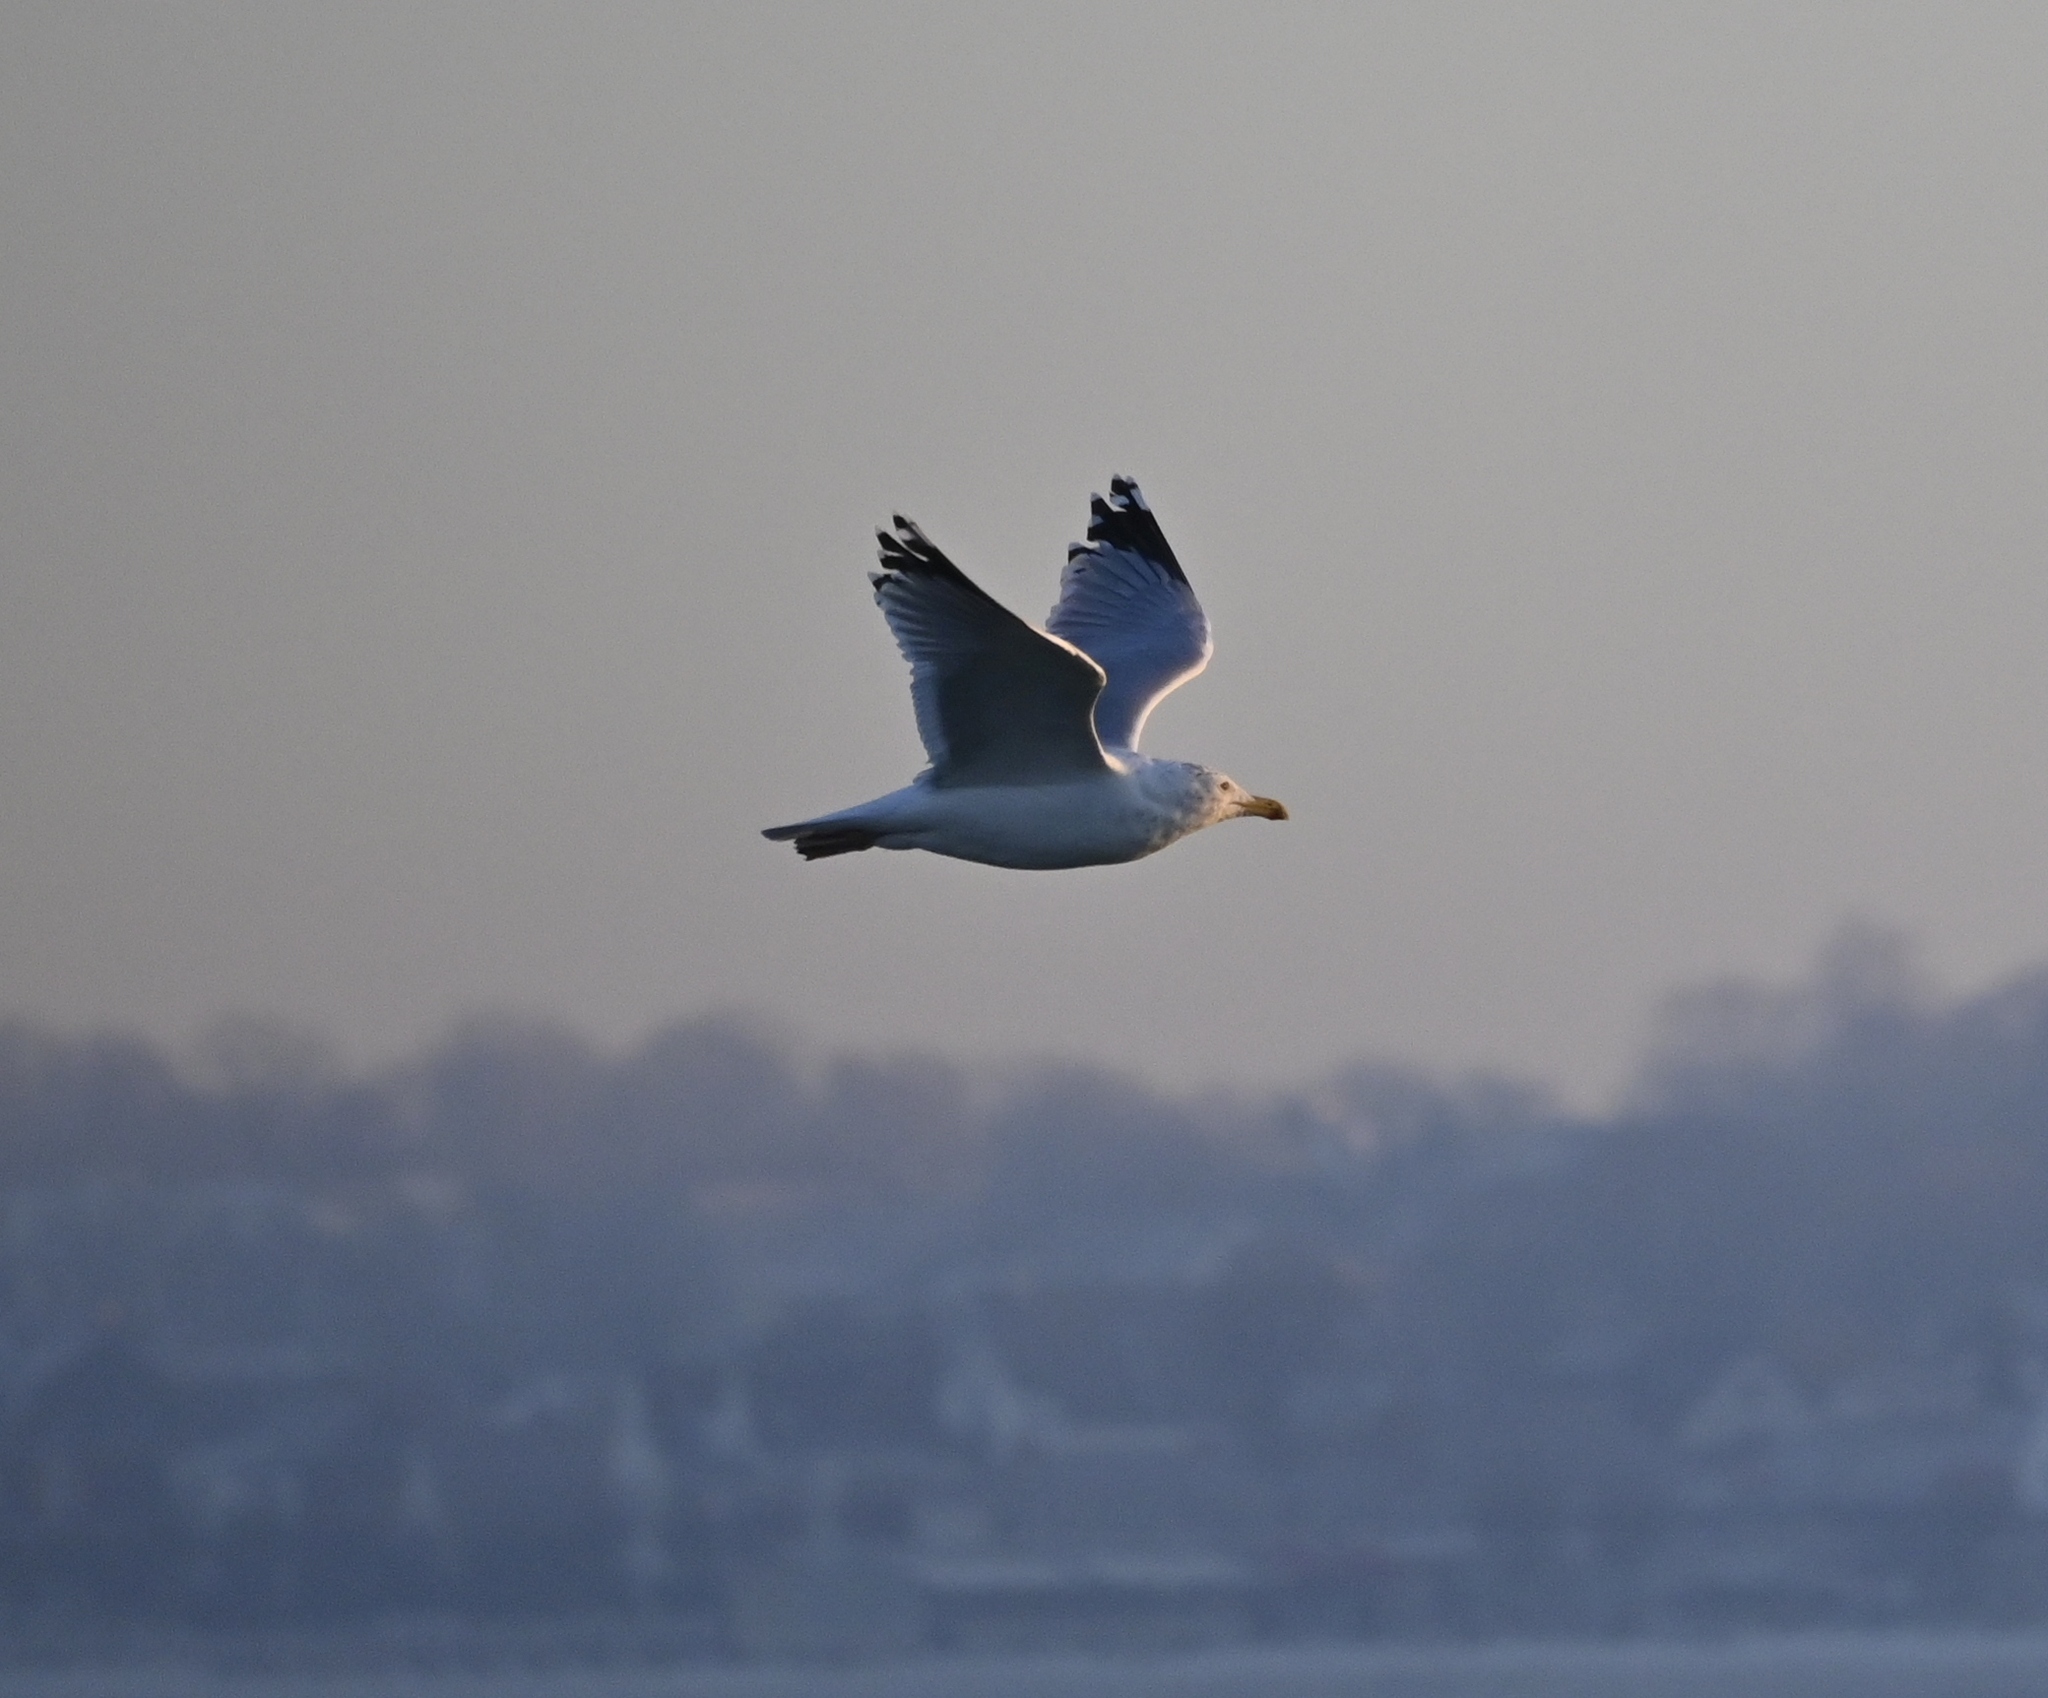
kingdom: Animalia
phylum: Chordata
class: Aves
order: Charadriiformes
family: Laridae
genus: Larus
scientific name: Larus argentatus
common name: Herring gull
